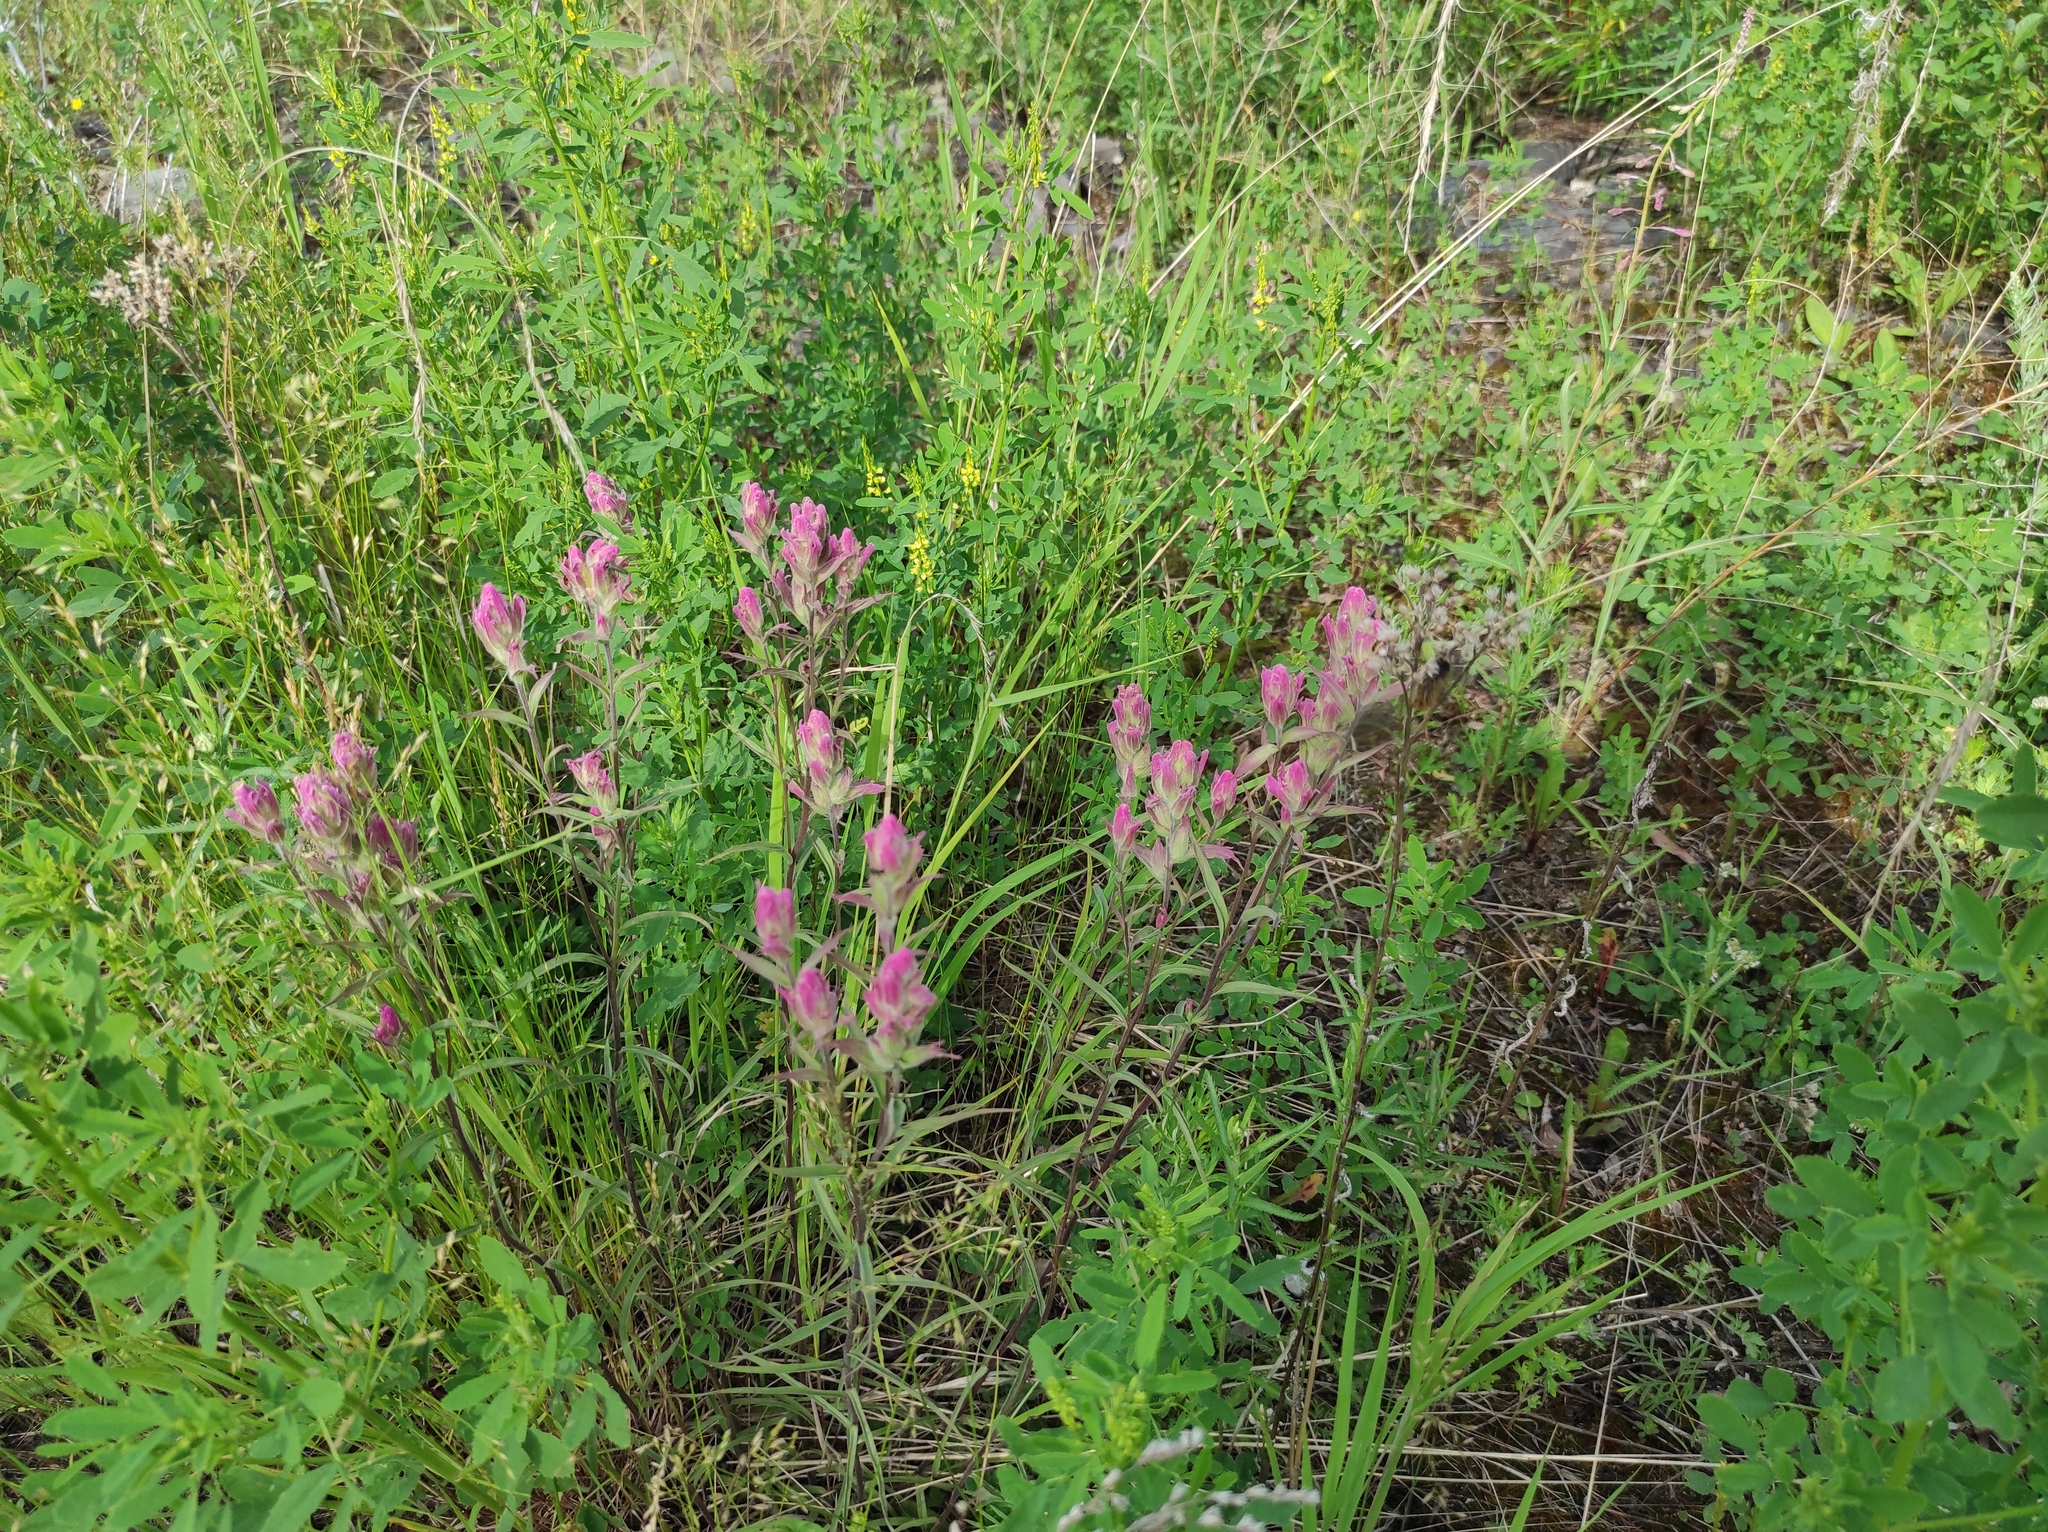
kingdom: Plantae
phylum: Tracheophyta
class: Magnoliopsida
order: Lamiales
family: Orobanchaceae
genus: Castilleja
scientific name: Castilleja rubra
